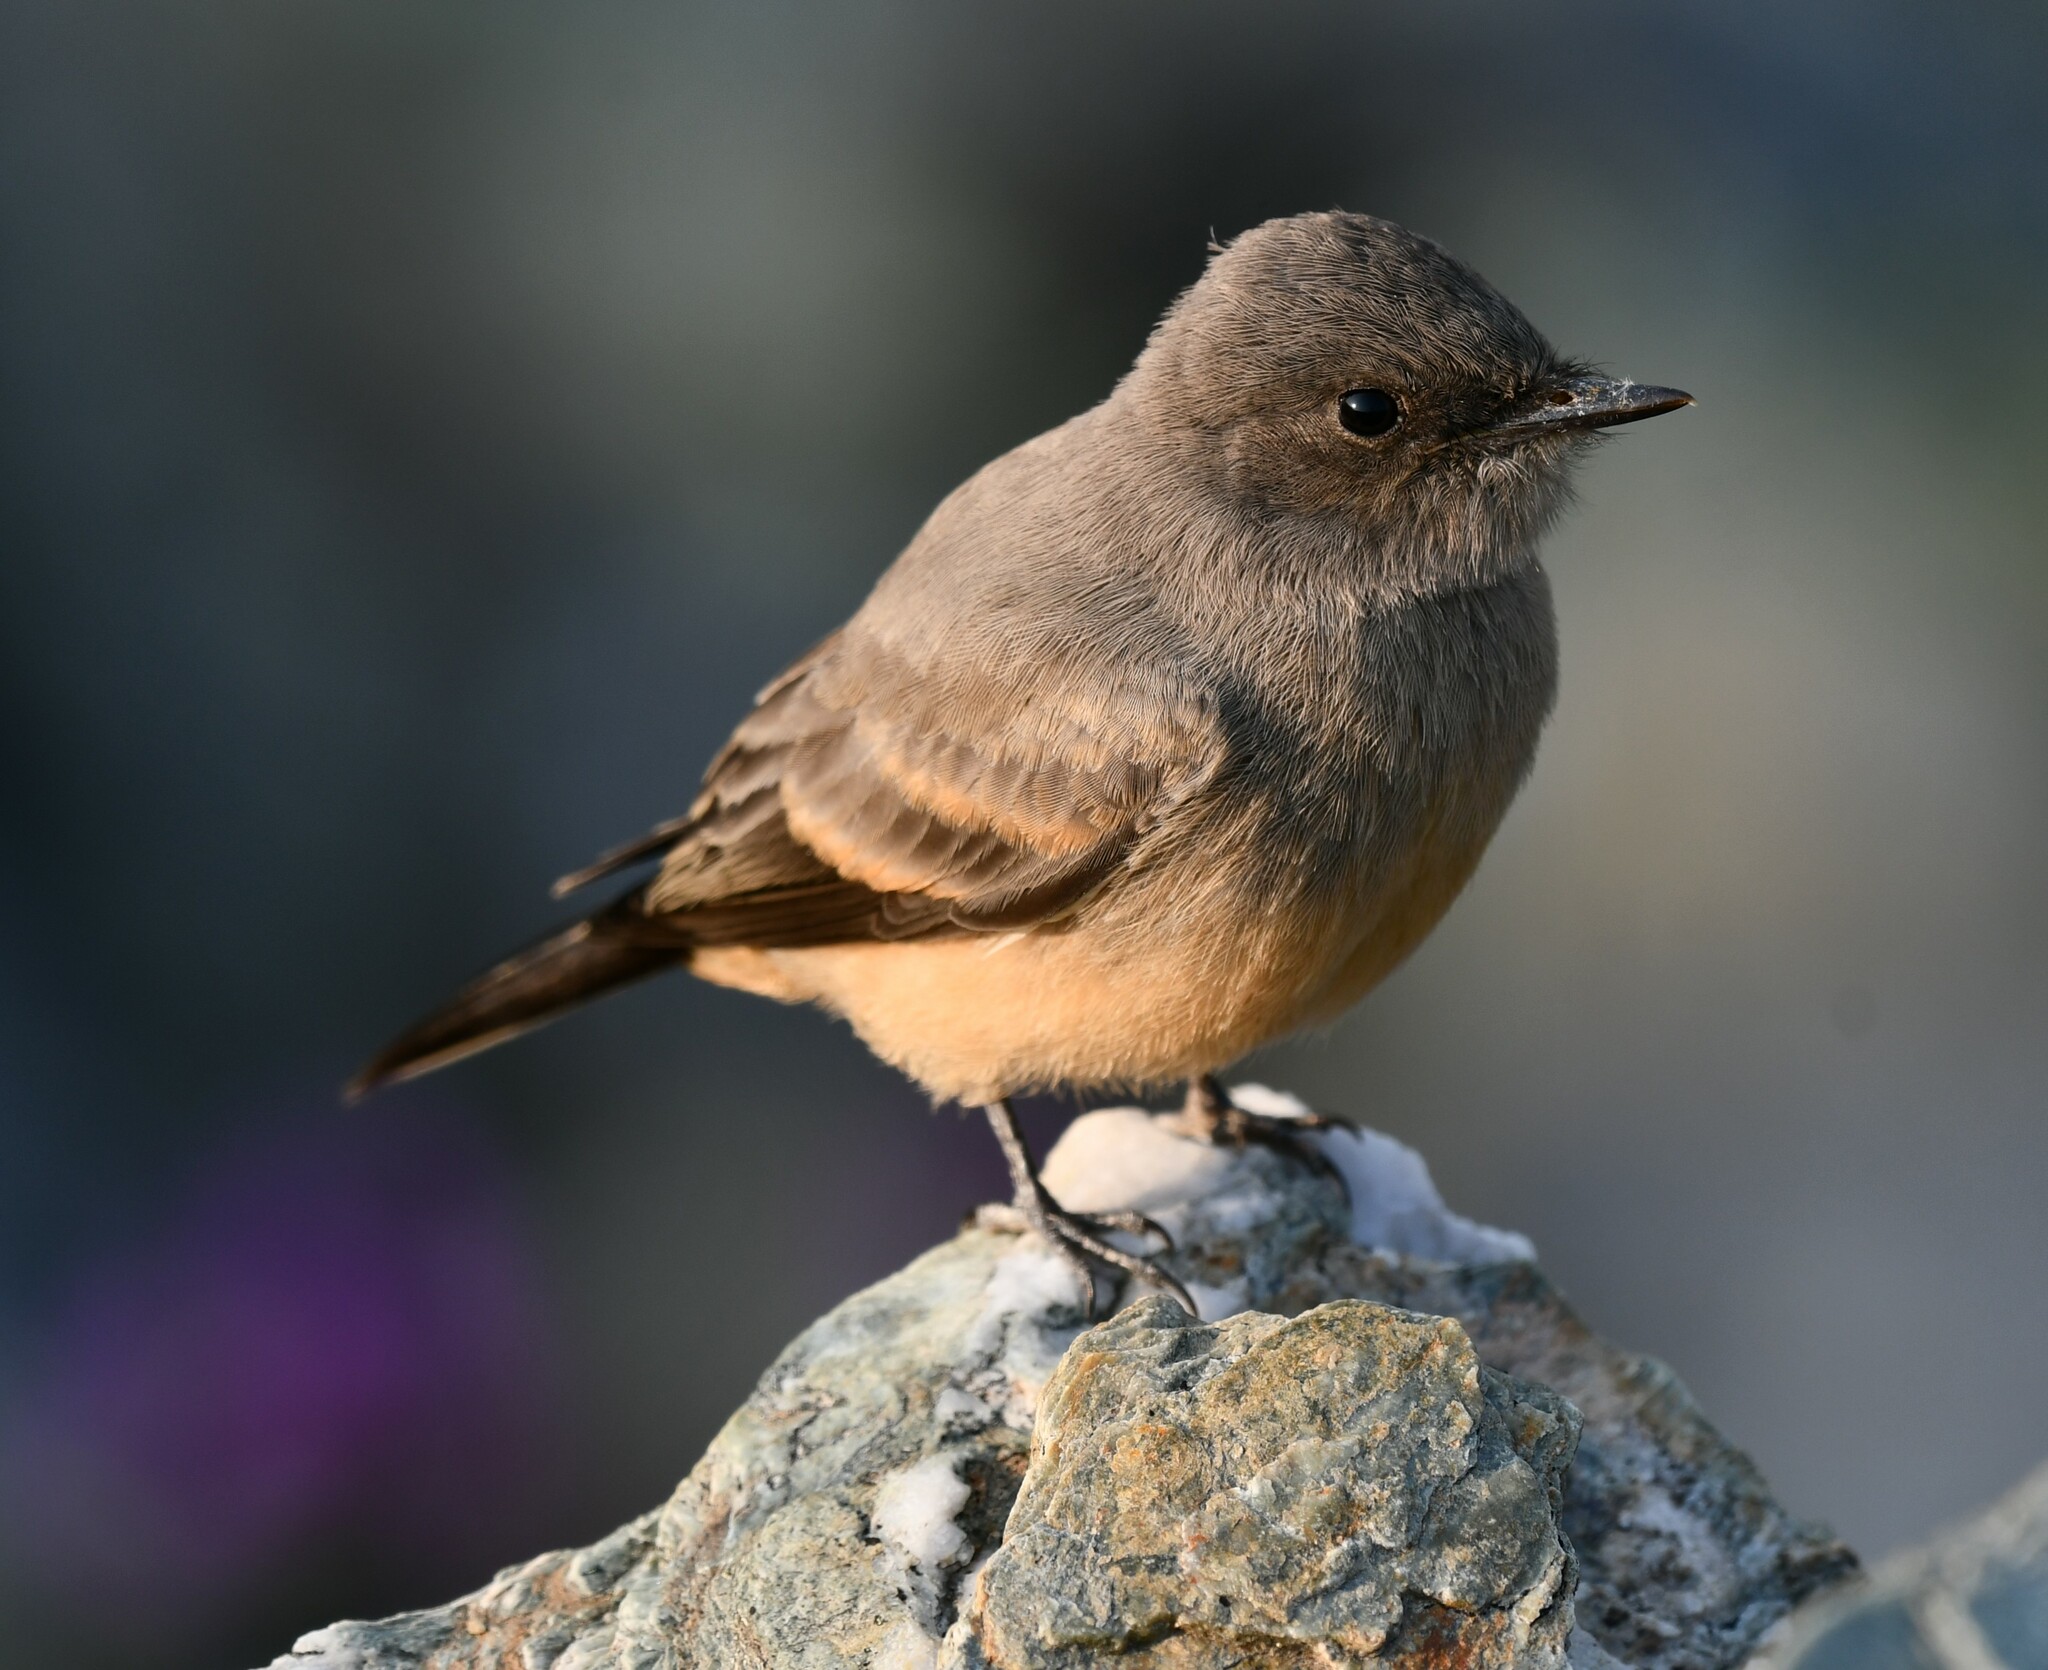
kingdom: Animalia
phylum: Chordata
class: Aves
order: Passeriformes
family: Tyrannidae
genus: Sayornis
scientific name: Sayornis saya
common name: Say's phoebe
